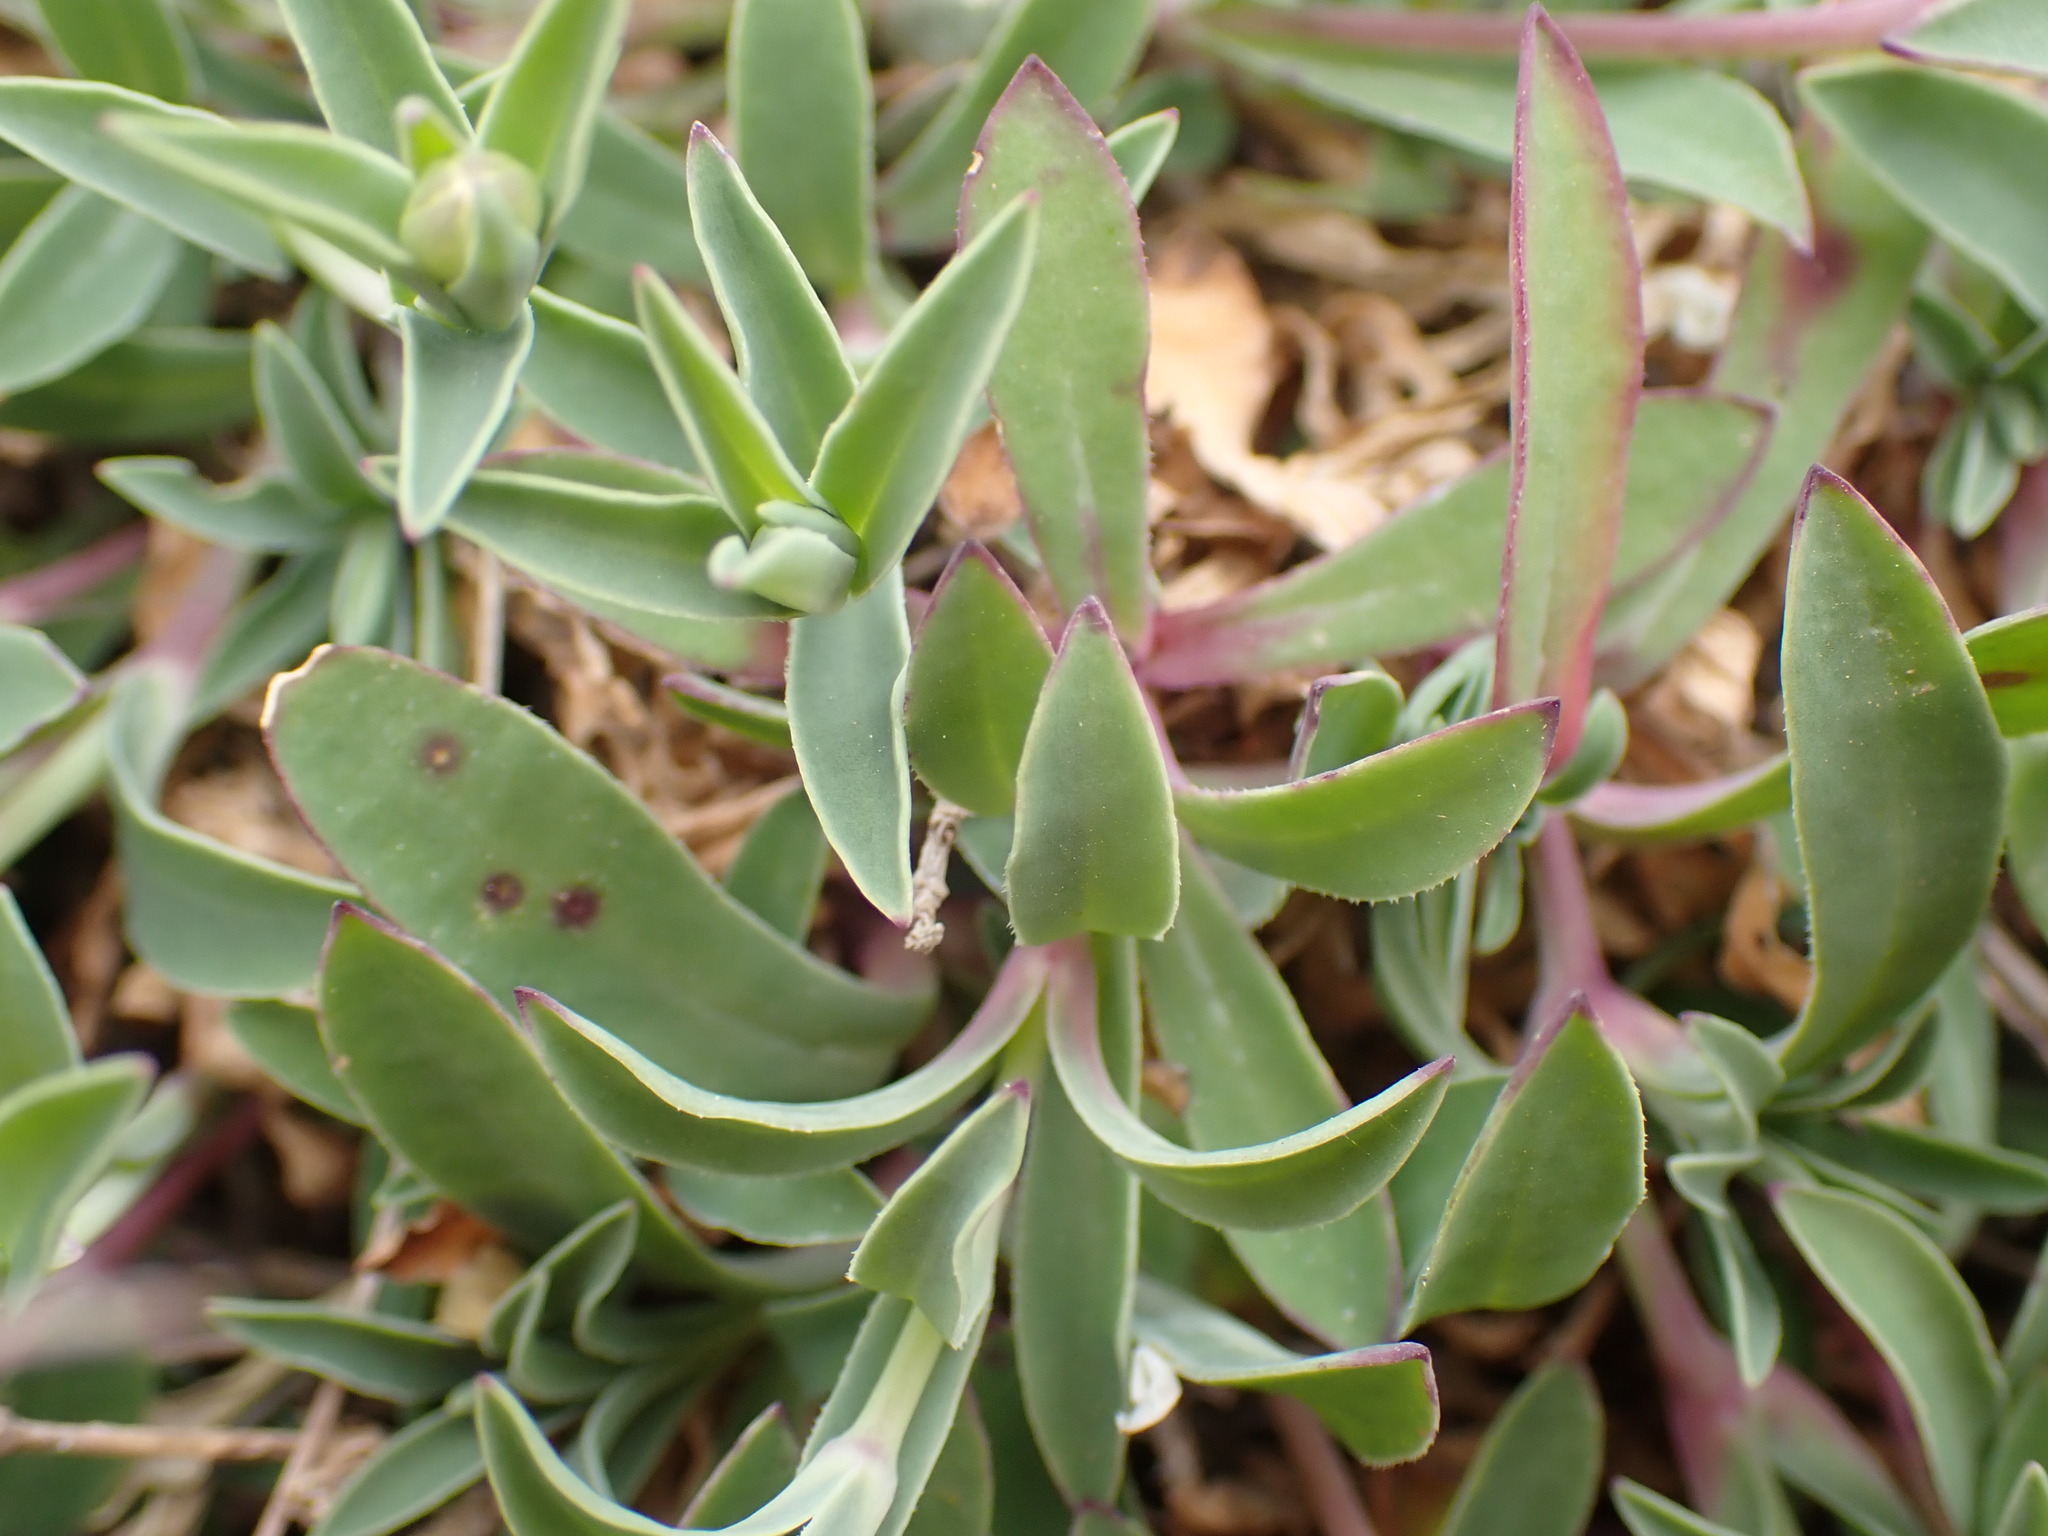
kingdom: Plantae
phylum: Tracheophyta
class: Magnoliopsida
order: Caryophyllales
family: Caryophyllaceae
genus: Silene
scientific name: Silene uniflora
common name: Sea campion
